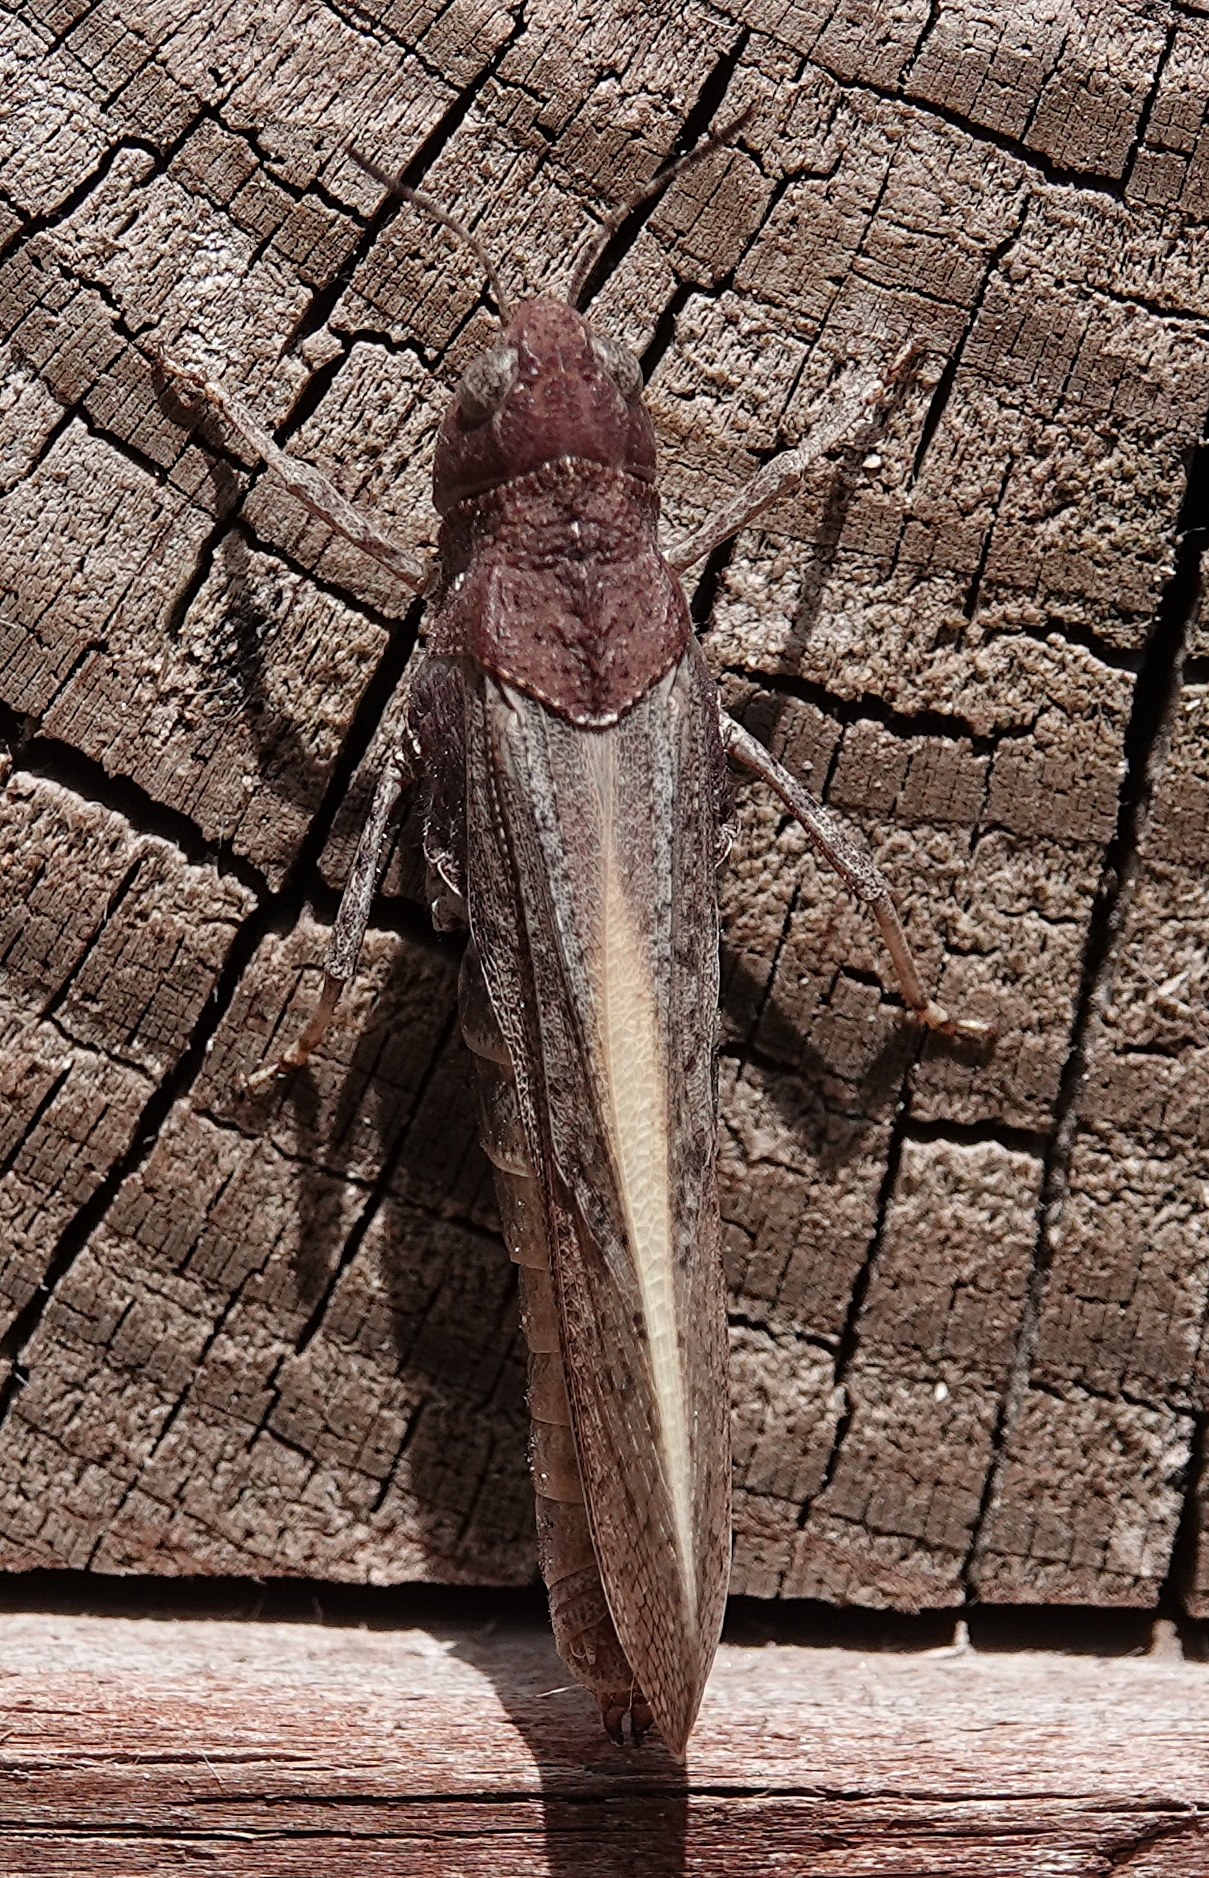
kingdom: Animalia
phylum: Arthropoda
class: Insecta
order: Orthoptera
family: Acrididae
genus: Arphia
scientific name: Arphia conspersa
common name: Speckle-winged rangeland grasshopper
